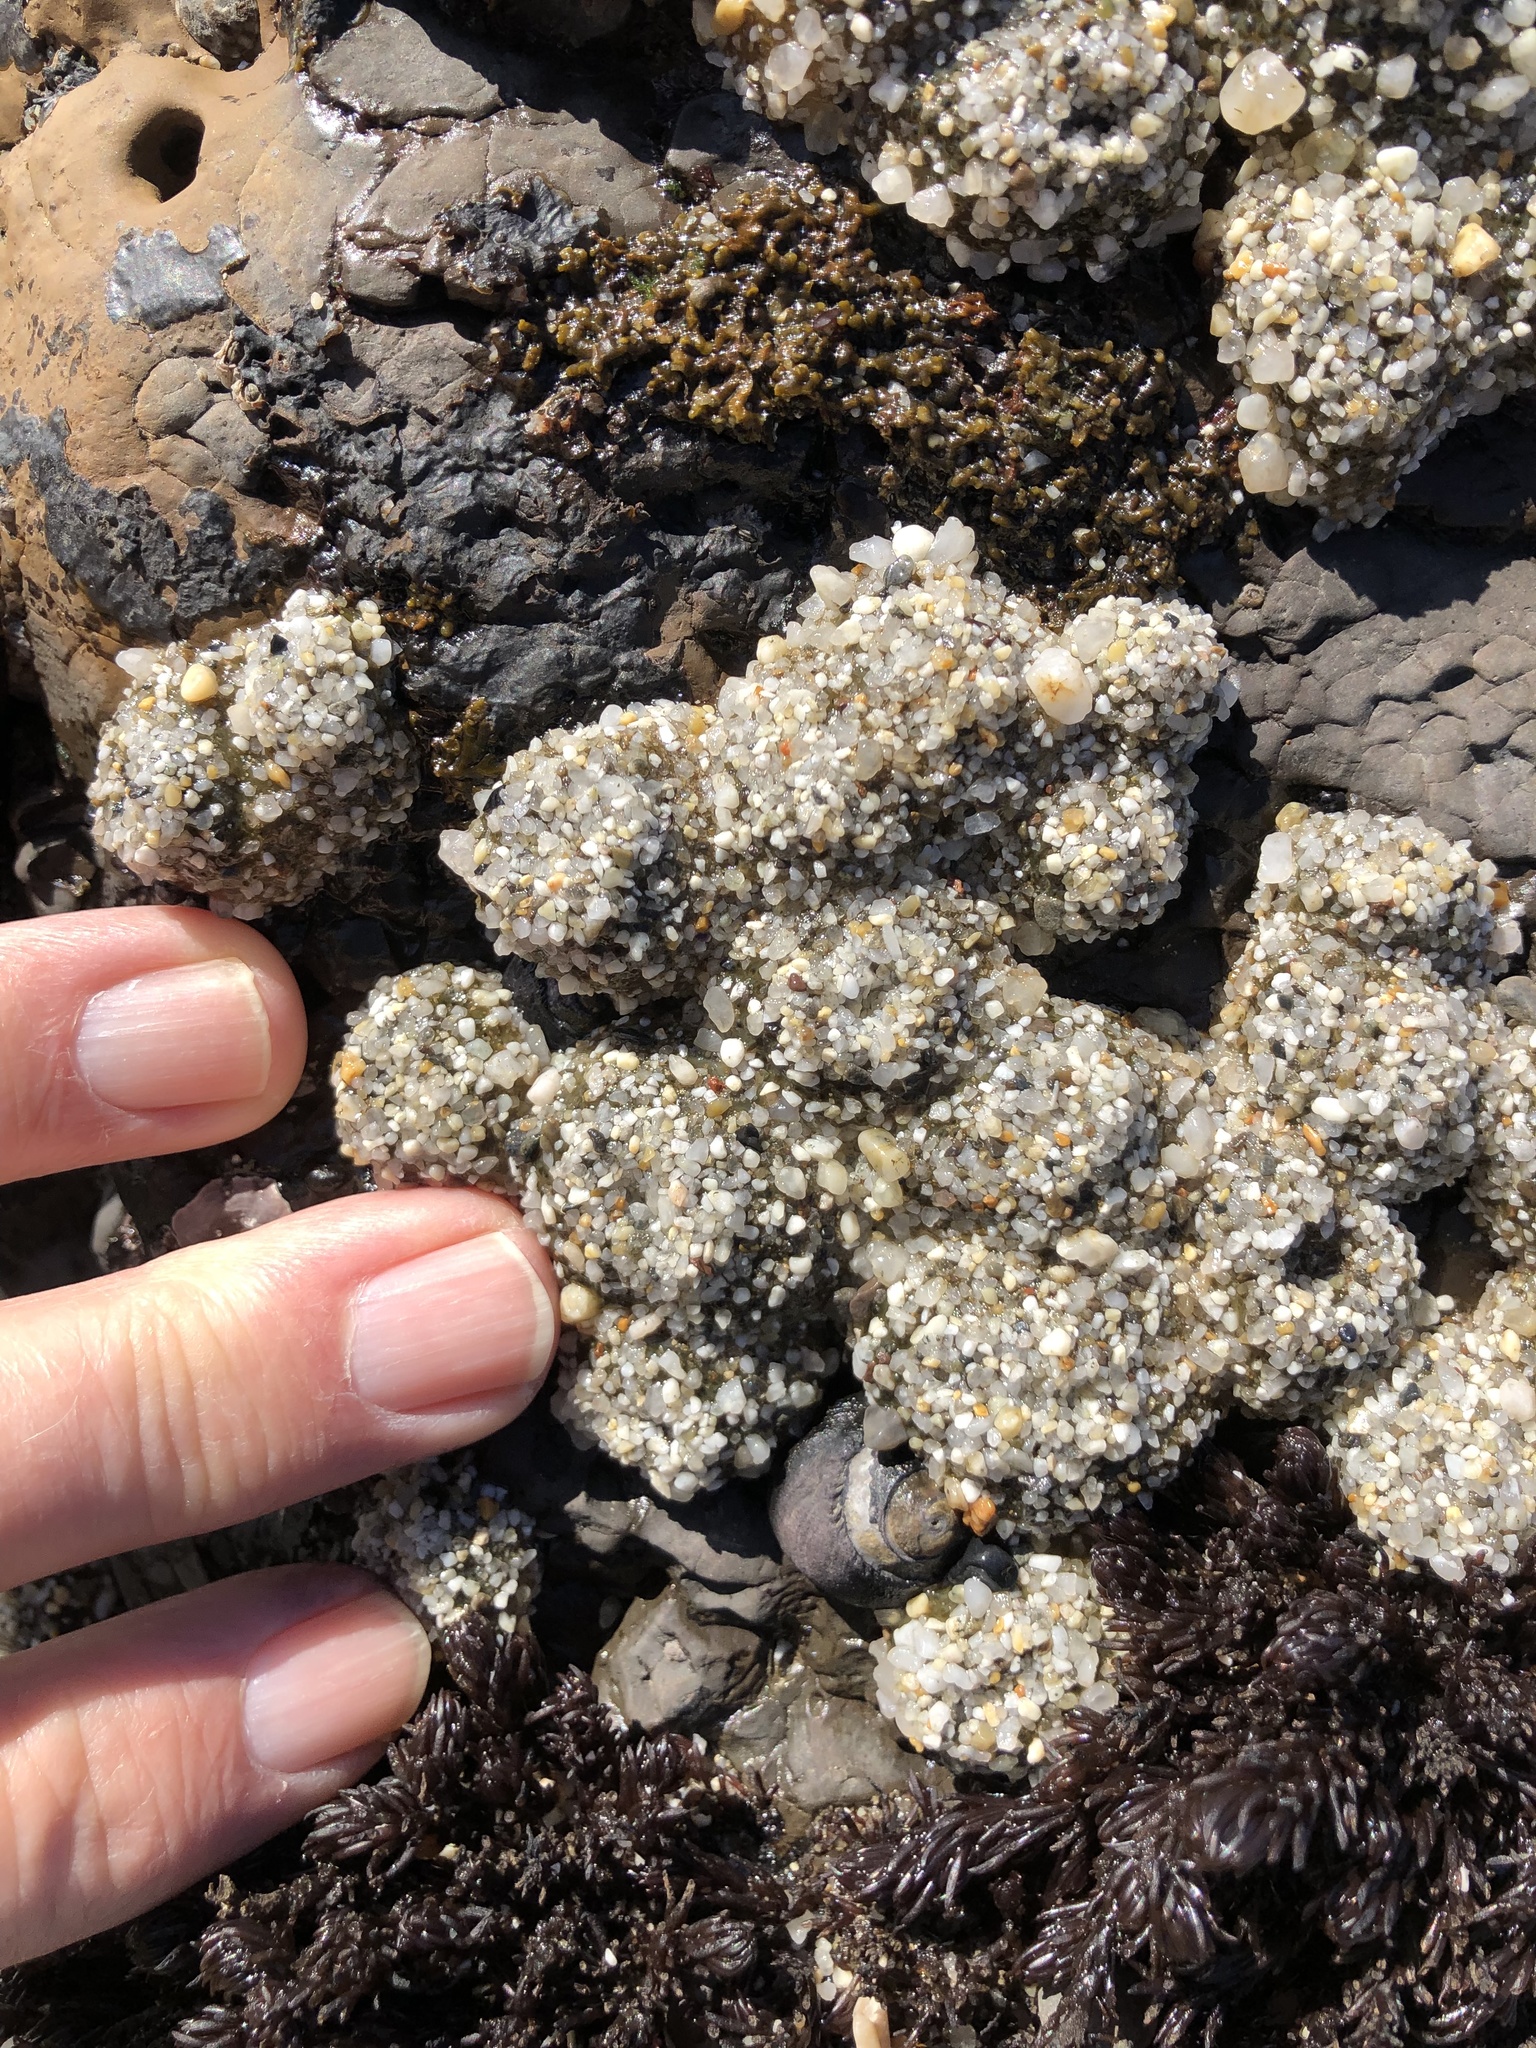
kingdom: Animalia
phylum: Cnidaria
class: Anthozoa
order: Actiniaria
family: Actiniidae
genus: Anthopleura
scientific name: Anthopleura elegantissima
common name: Clonal anemone
